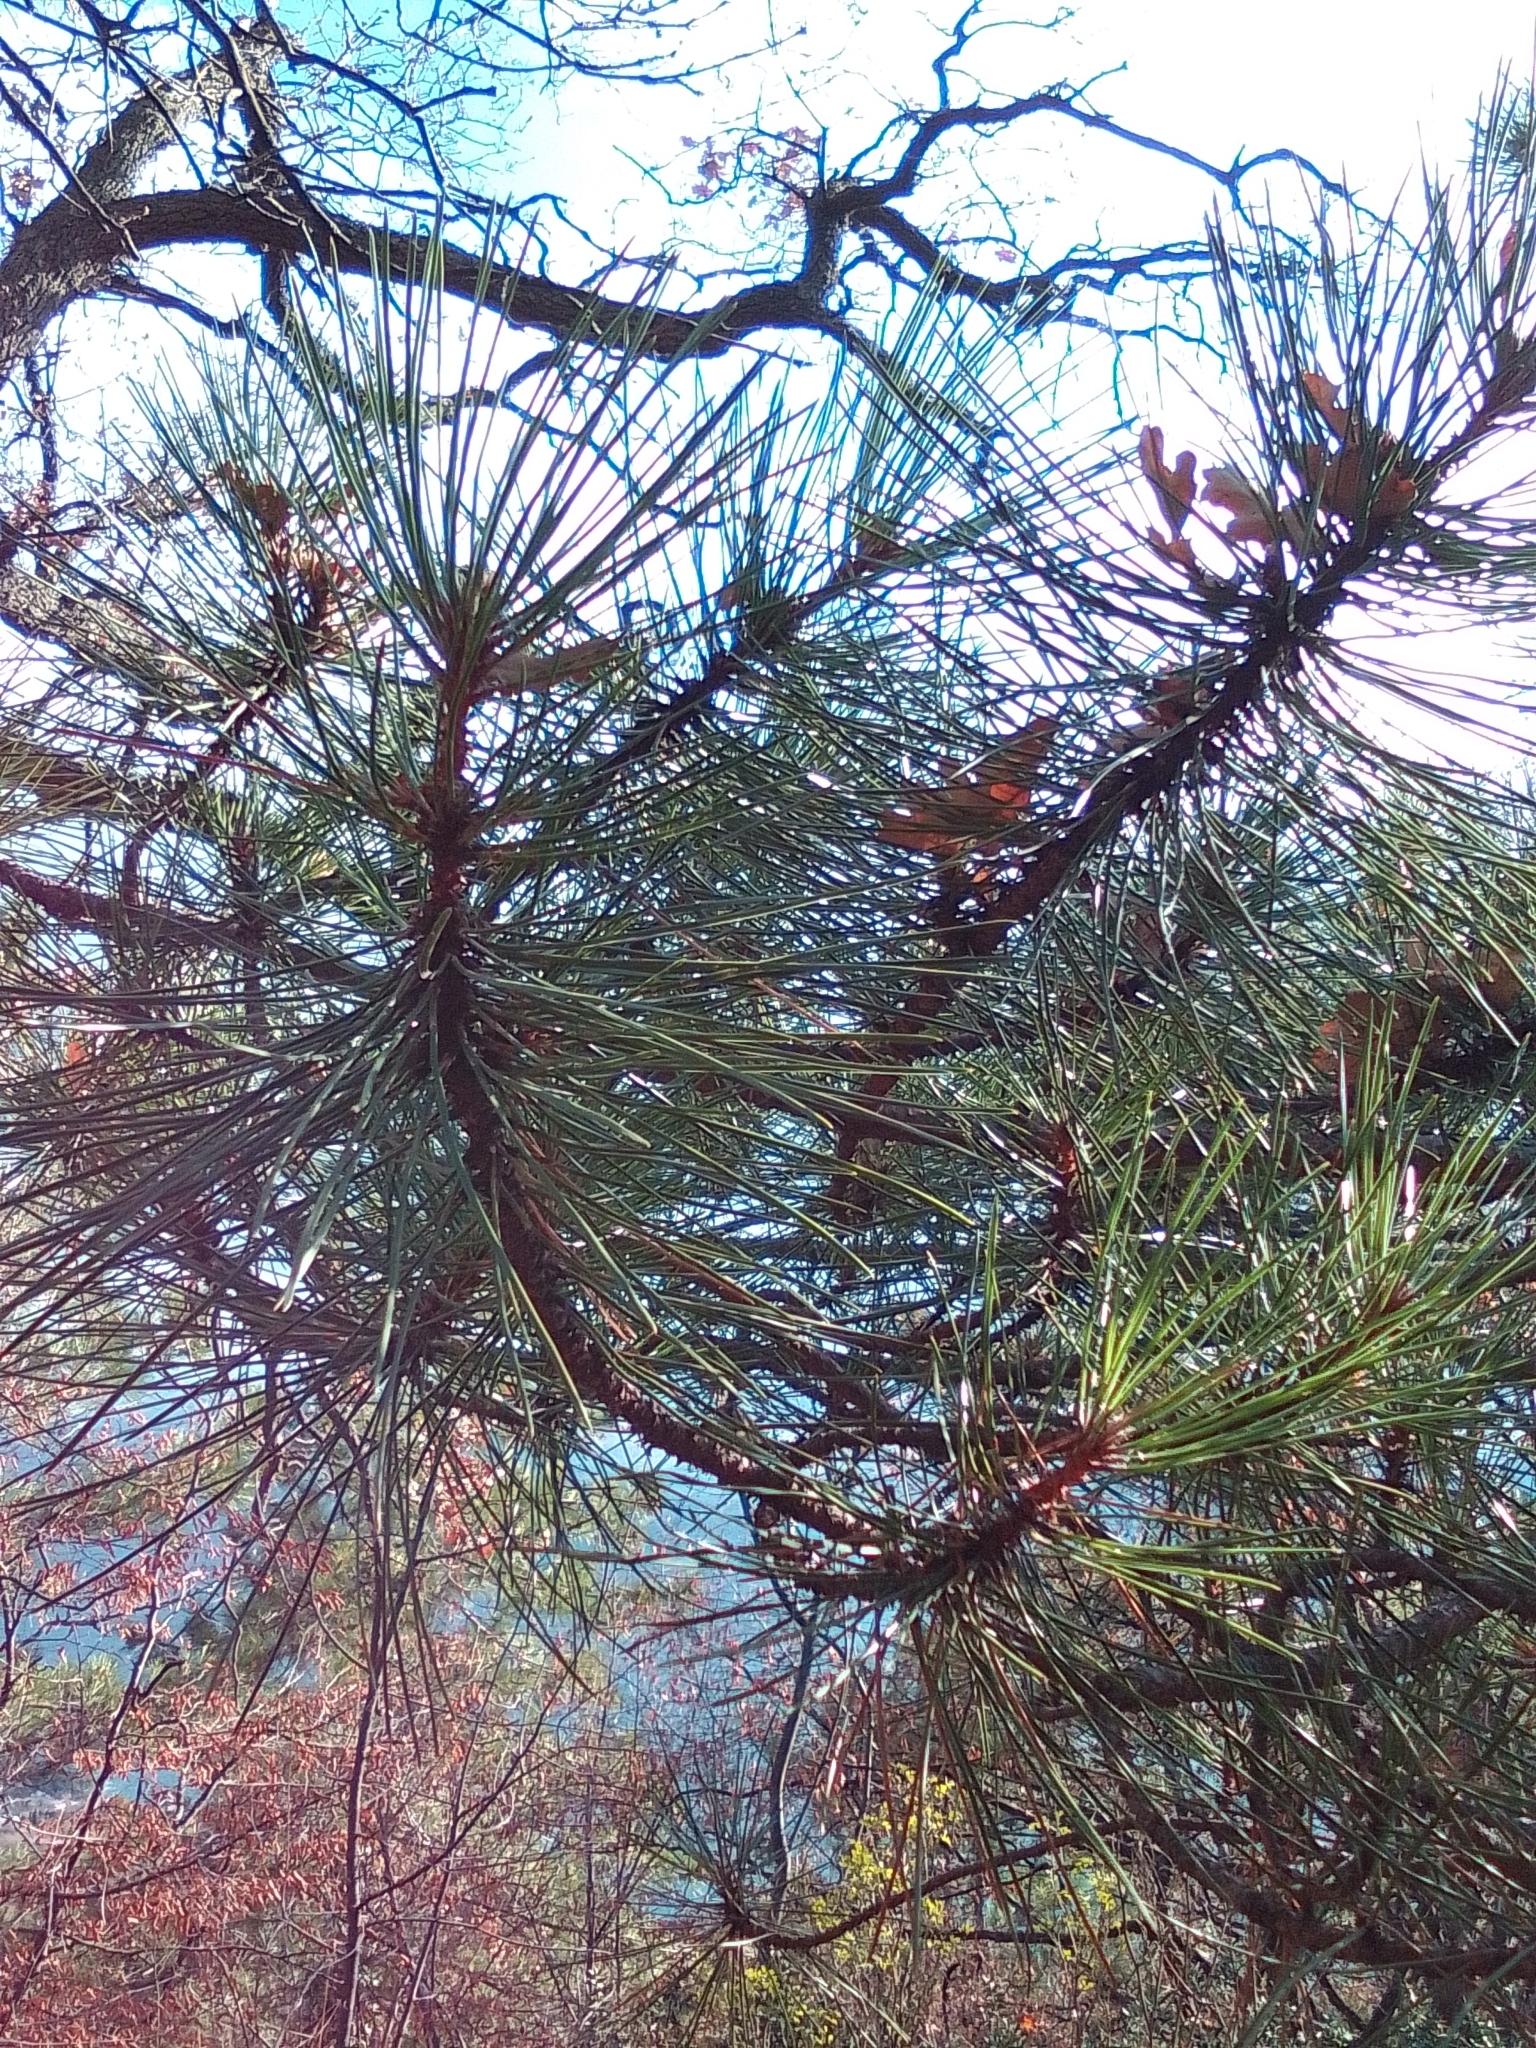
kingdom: Plantae
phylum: Tracheophyta
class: Pinopsida
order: Pinales
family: Pinaceae
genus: Pinus
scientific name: Pinus nigra
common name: Austrian pine
